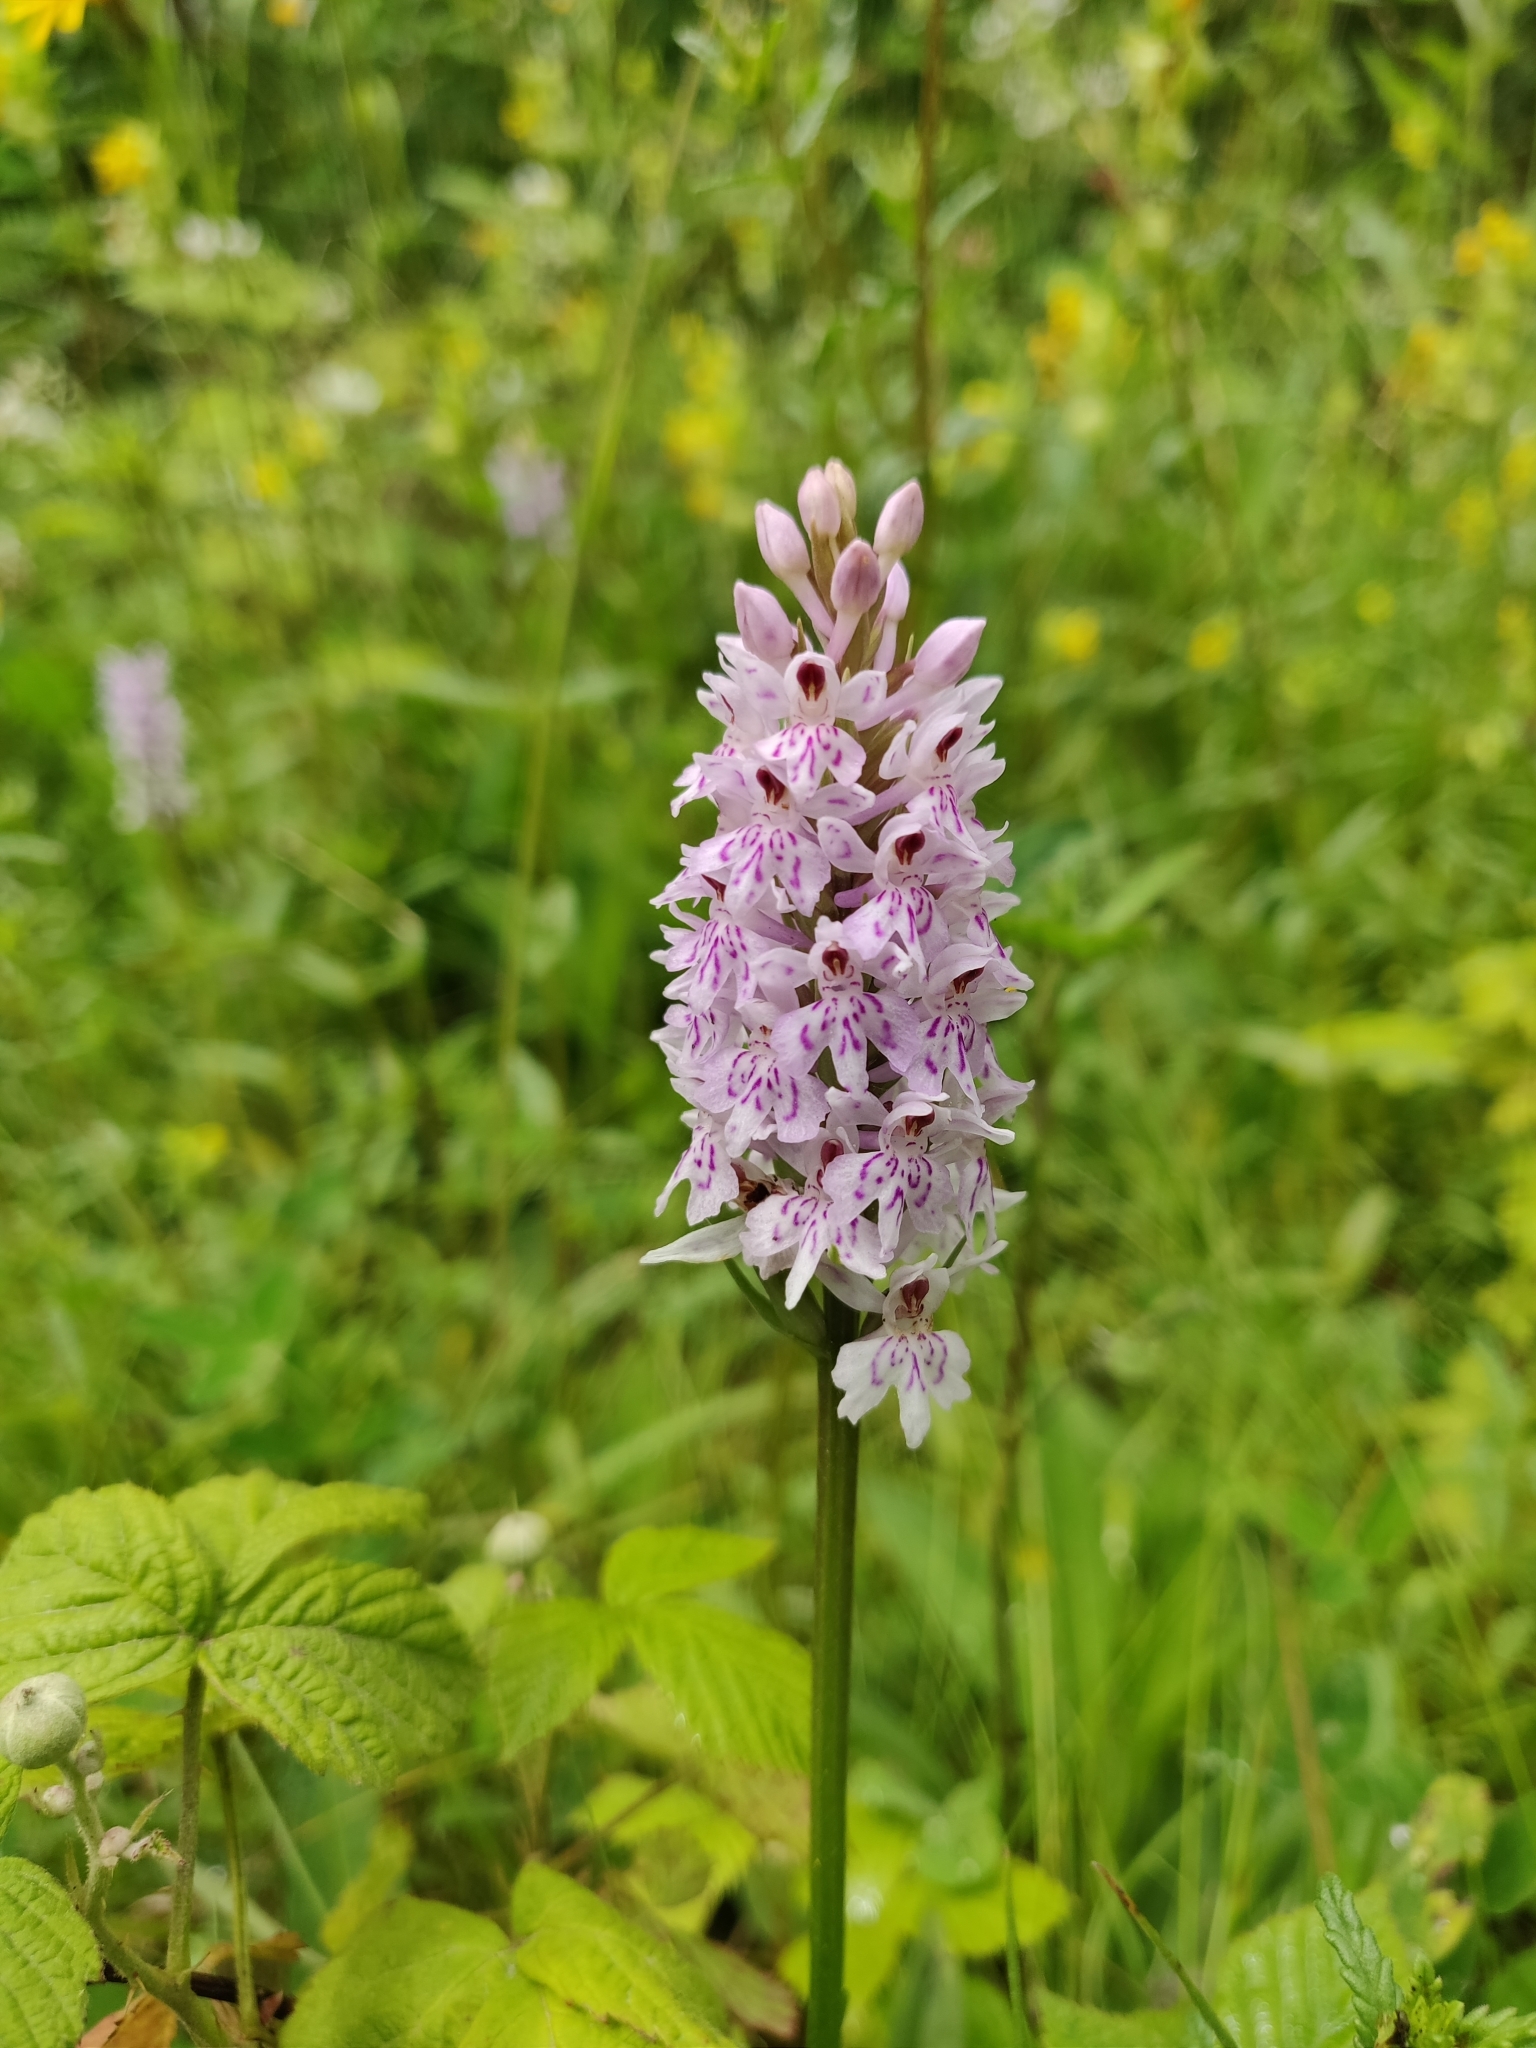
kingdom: Plantae
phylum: Tracheophyta
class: Liliopsida
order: Asparagales
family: Orchidaceae
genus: Dactylorhiza
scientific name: Dactylorhiza maculata
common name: Heath spotted-orchid
